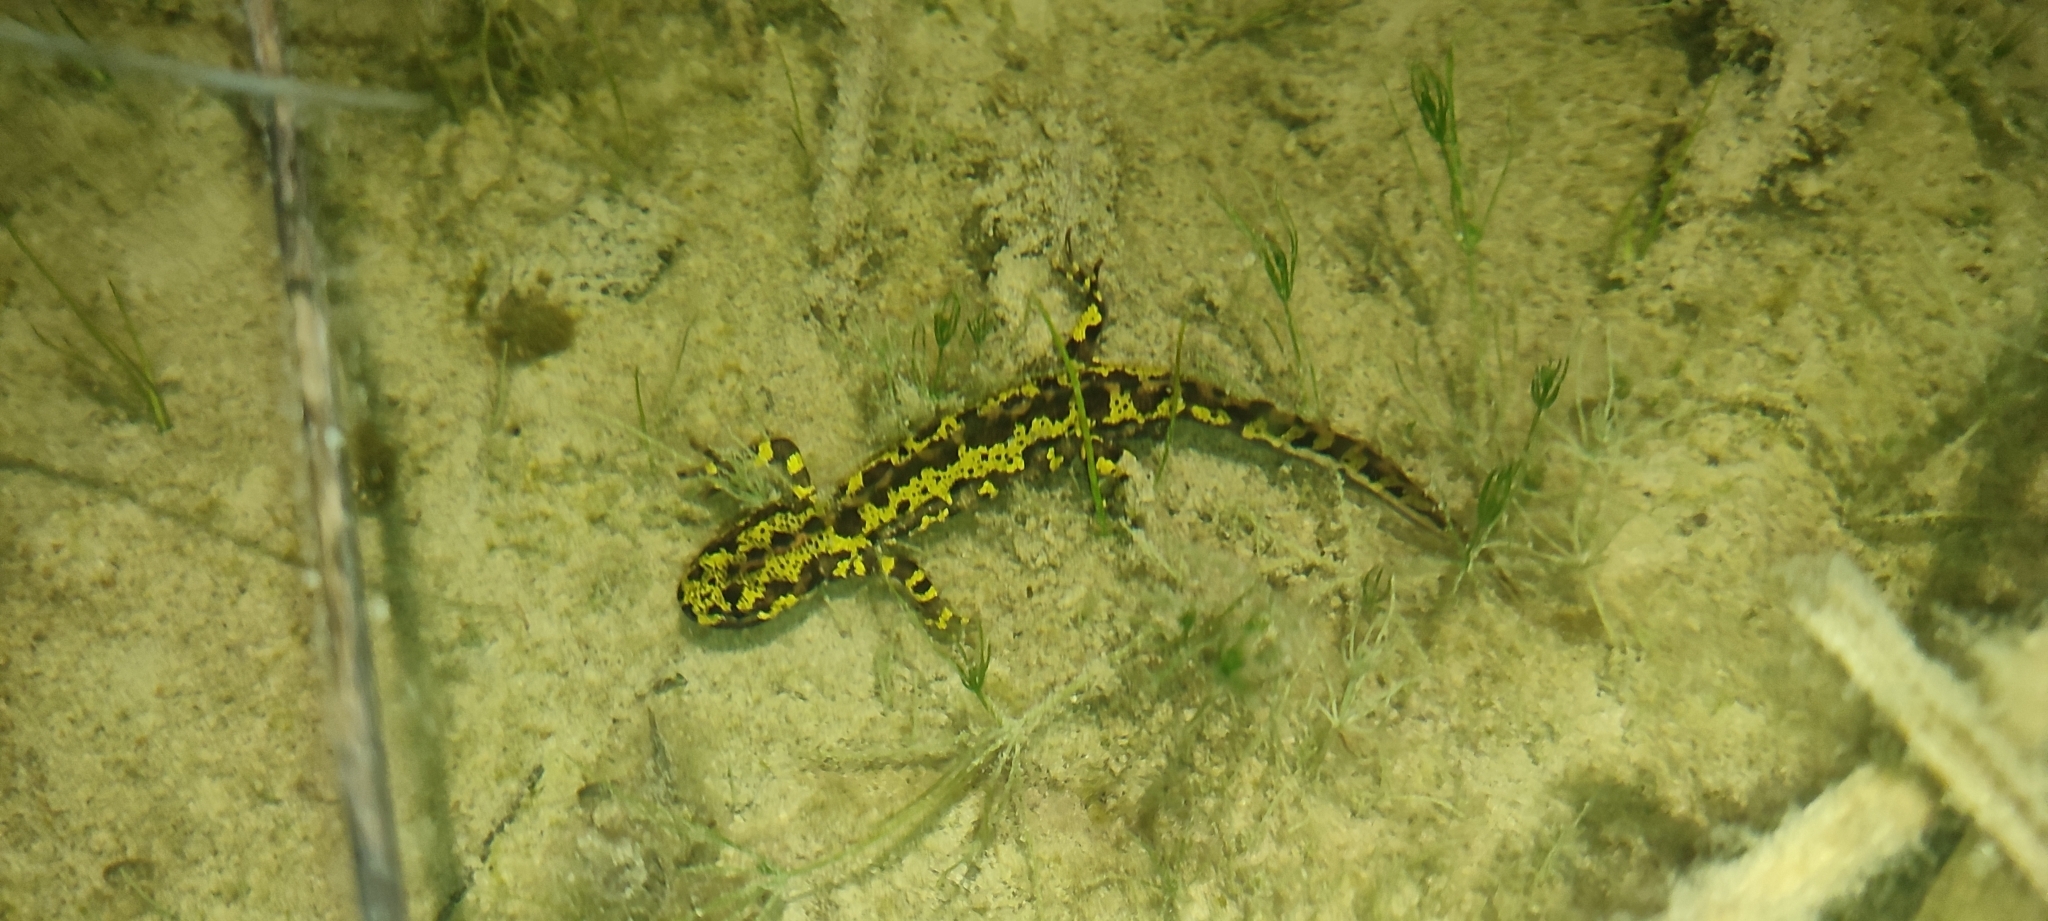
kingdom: Animalia
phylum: Chordata
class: Amphibia
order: Caudata
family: Salamandridae
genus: Triturus
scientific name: Triturus marmoratus
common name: Marbled newt
